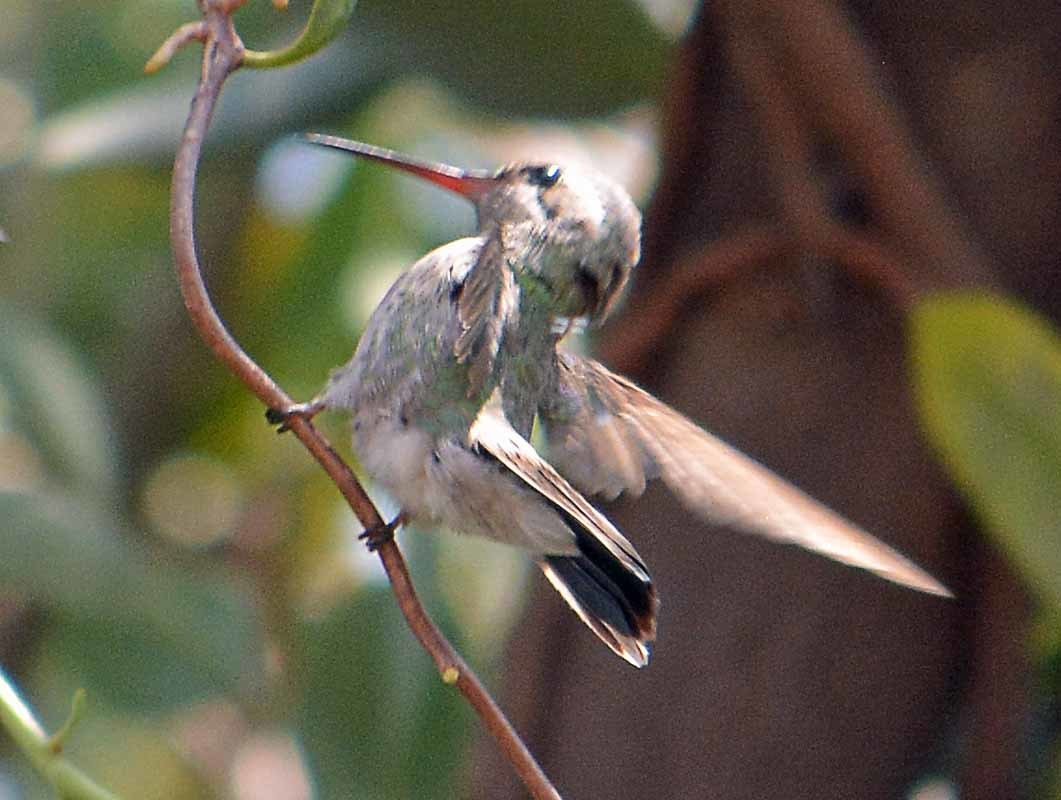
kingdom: Animalia
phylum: Chordata
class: Aves
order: Apodiformes
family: Trochilidae
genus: Cynanthus
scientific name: Cynanthus latirostris
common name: Broad-billed hummingbird
